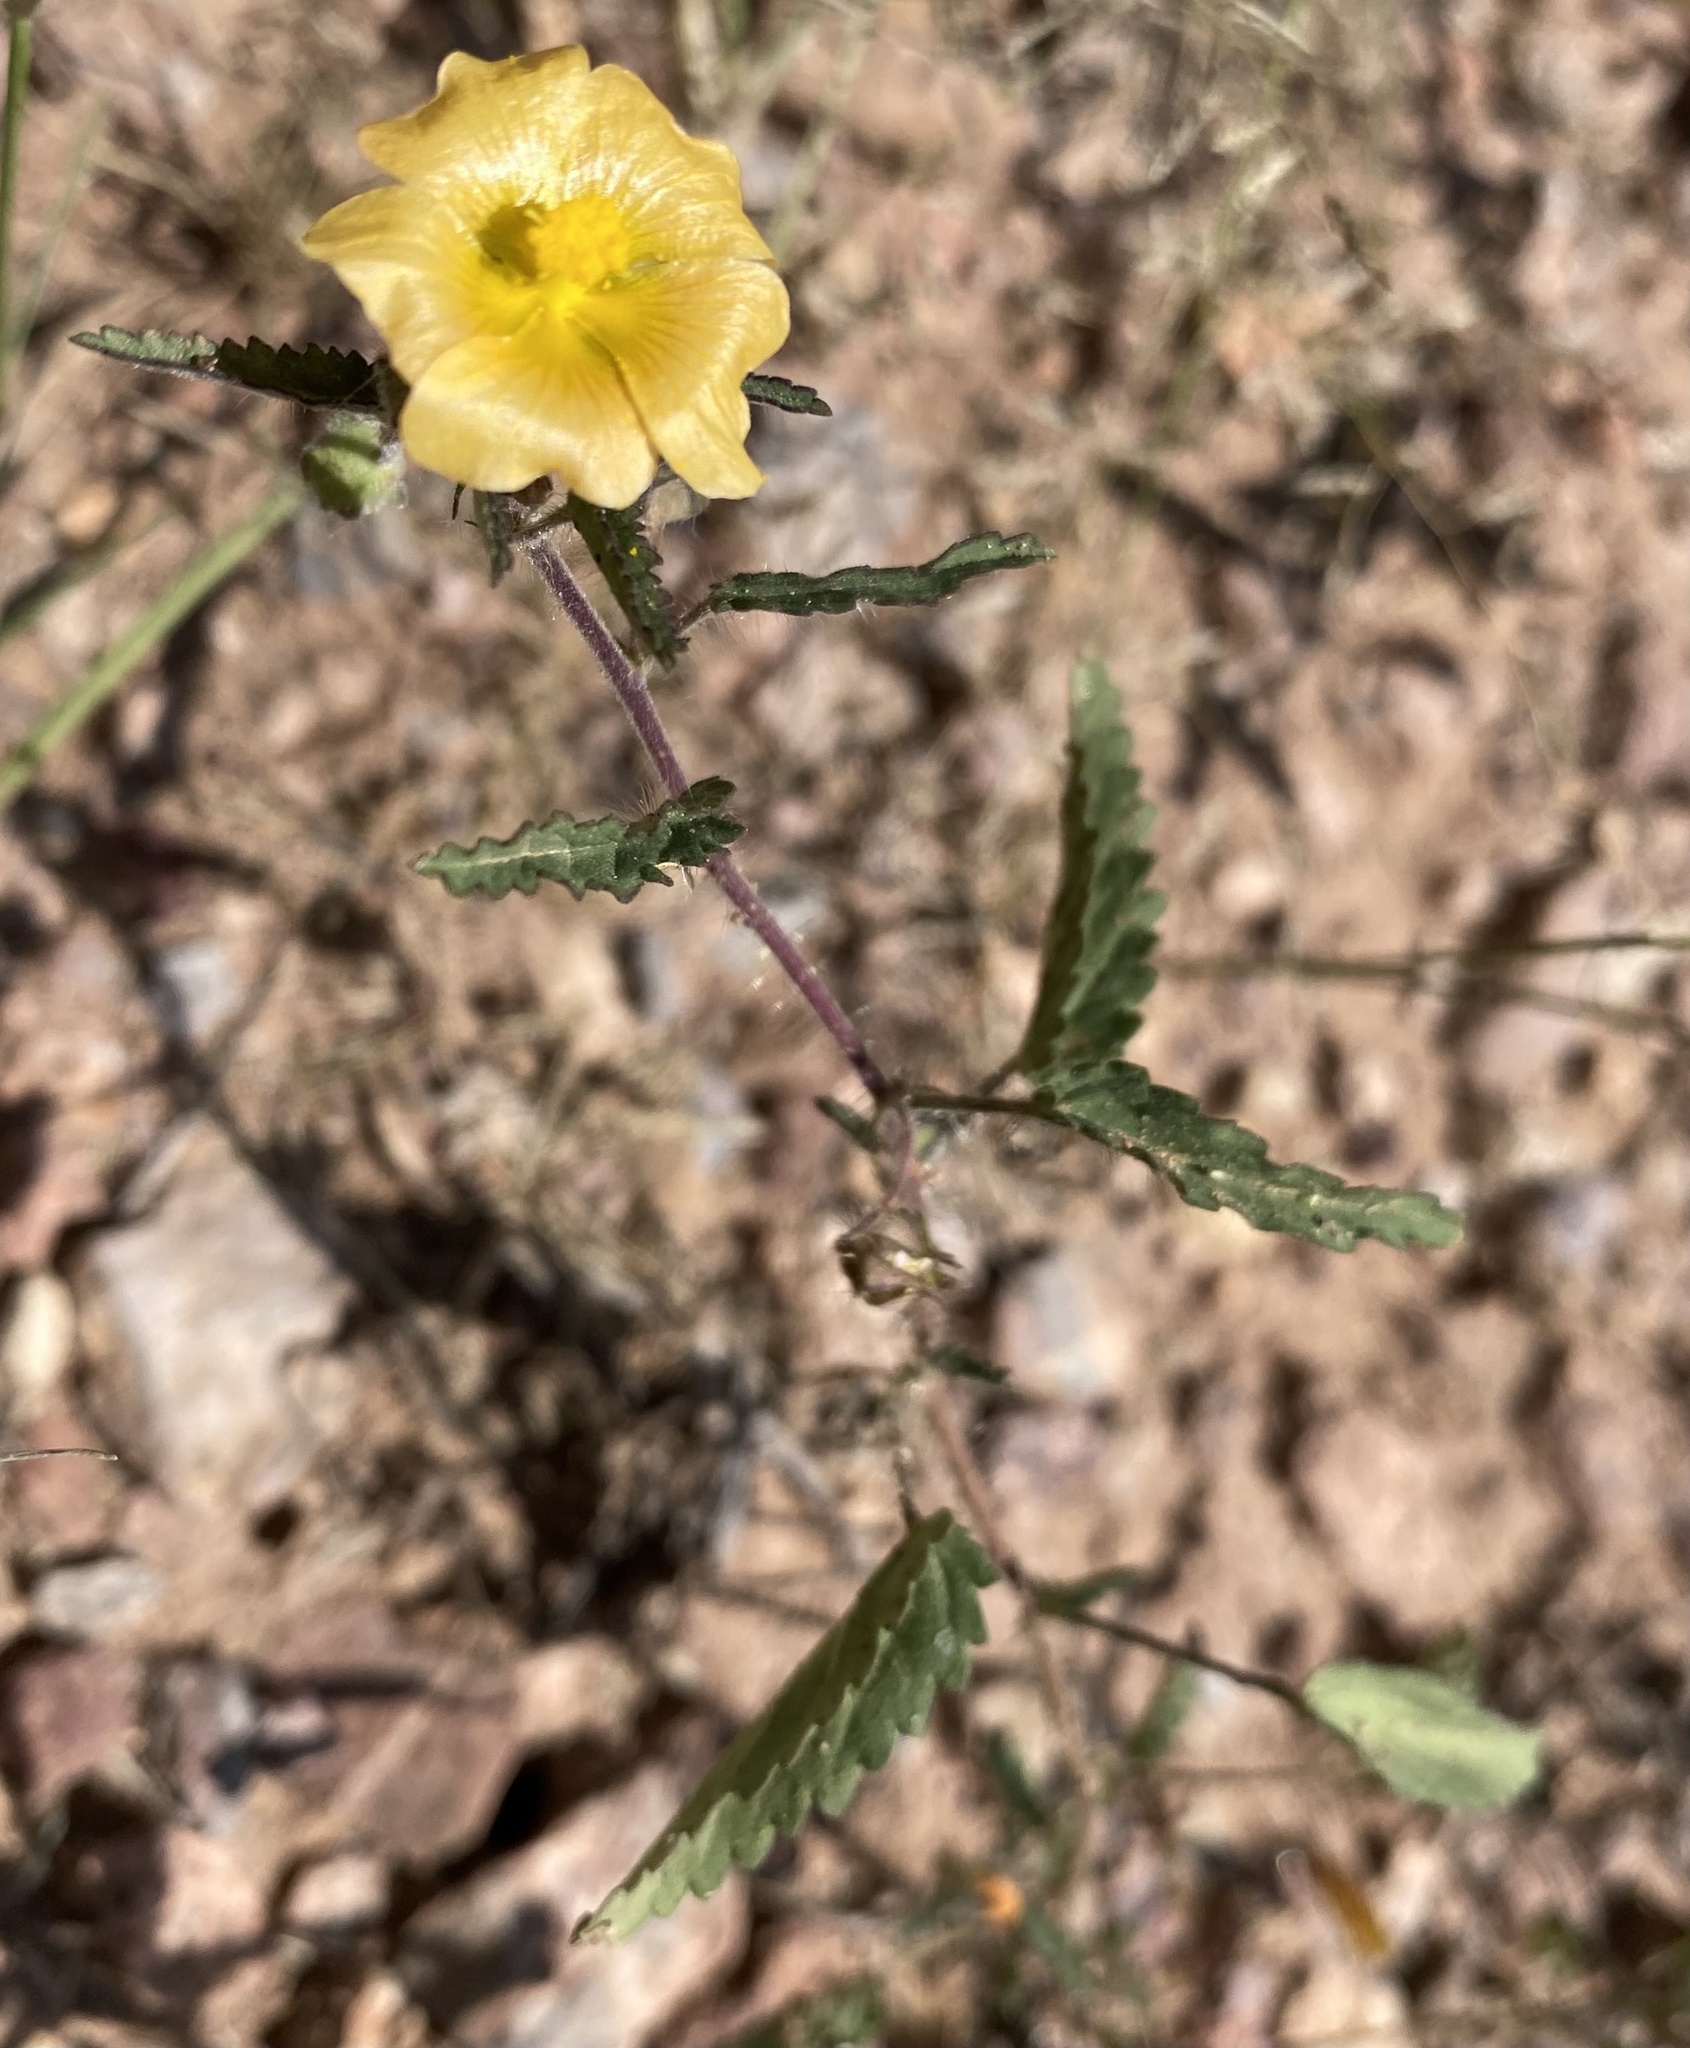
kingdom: Plantae
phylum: Tracheophyta
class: Magnoliopsida
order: Malvales
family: Malvaceae
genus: Sida
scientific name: Sida abutilifolia
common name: Spreading fanpetals
